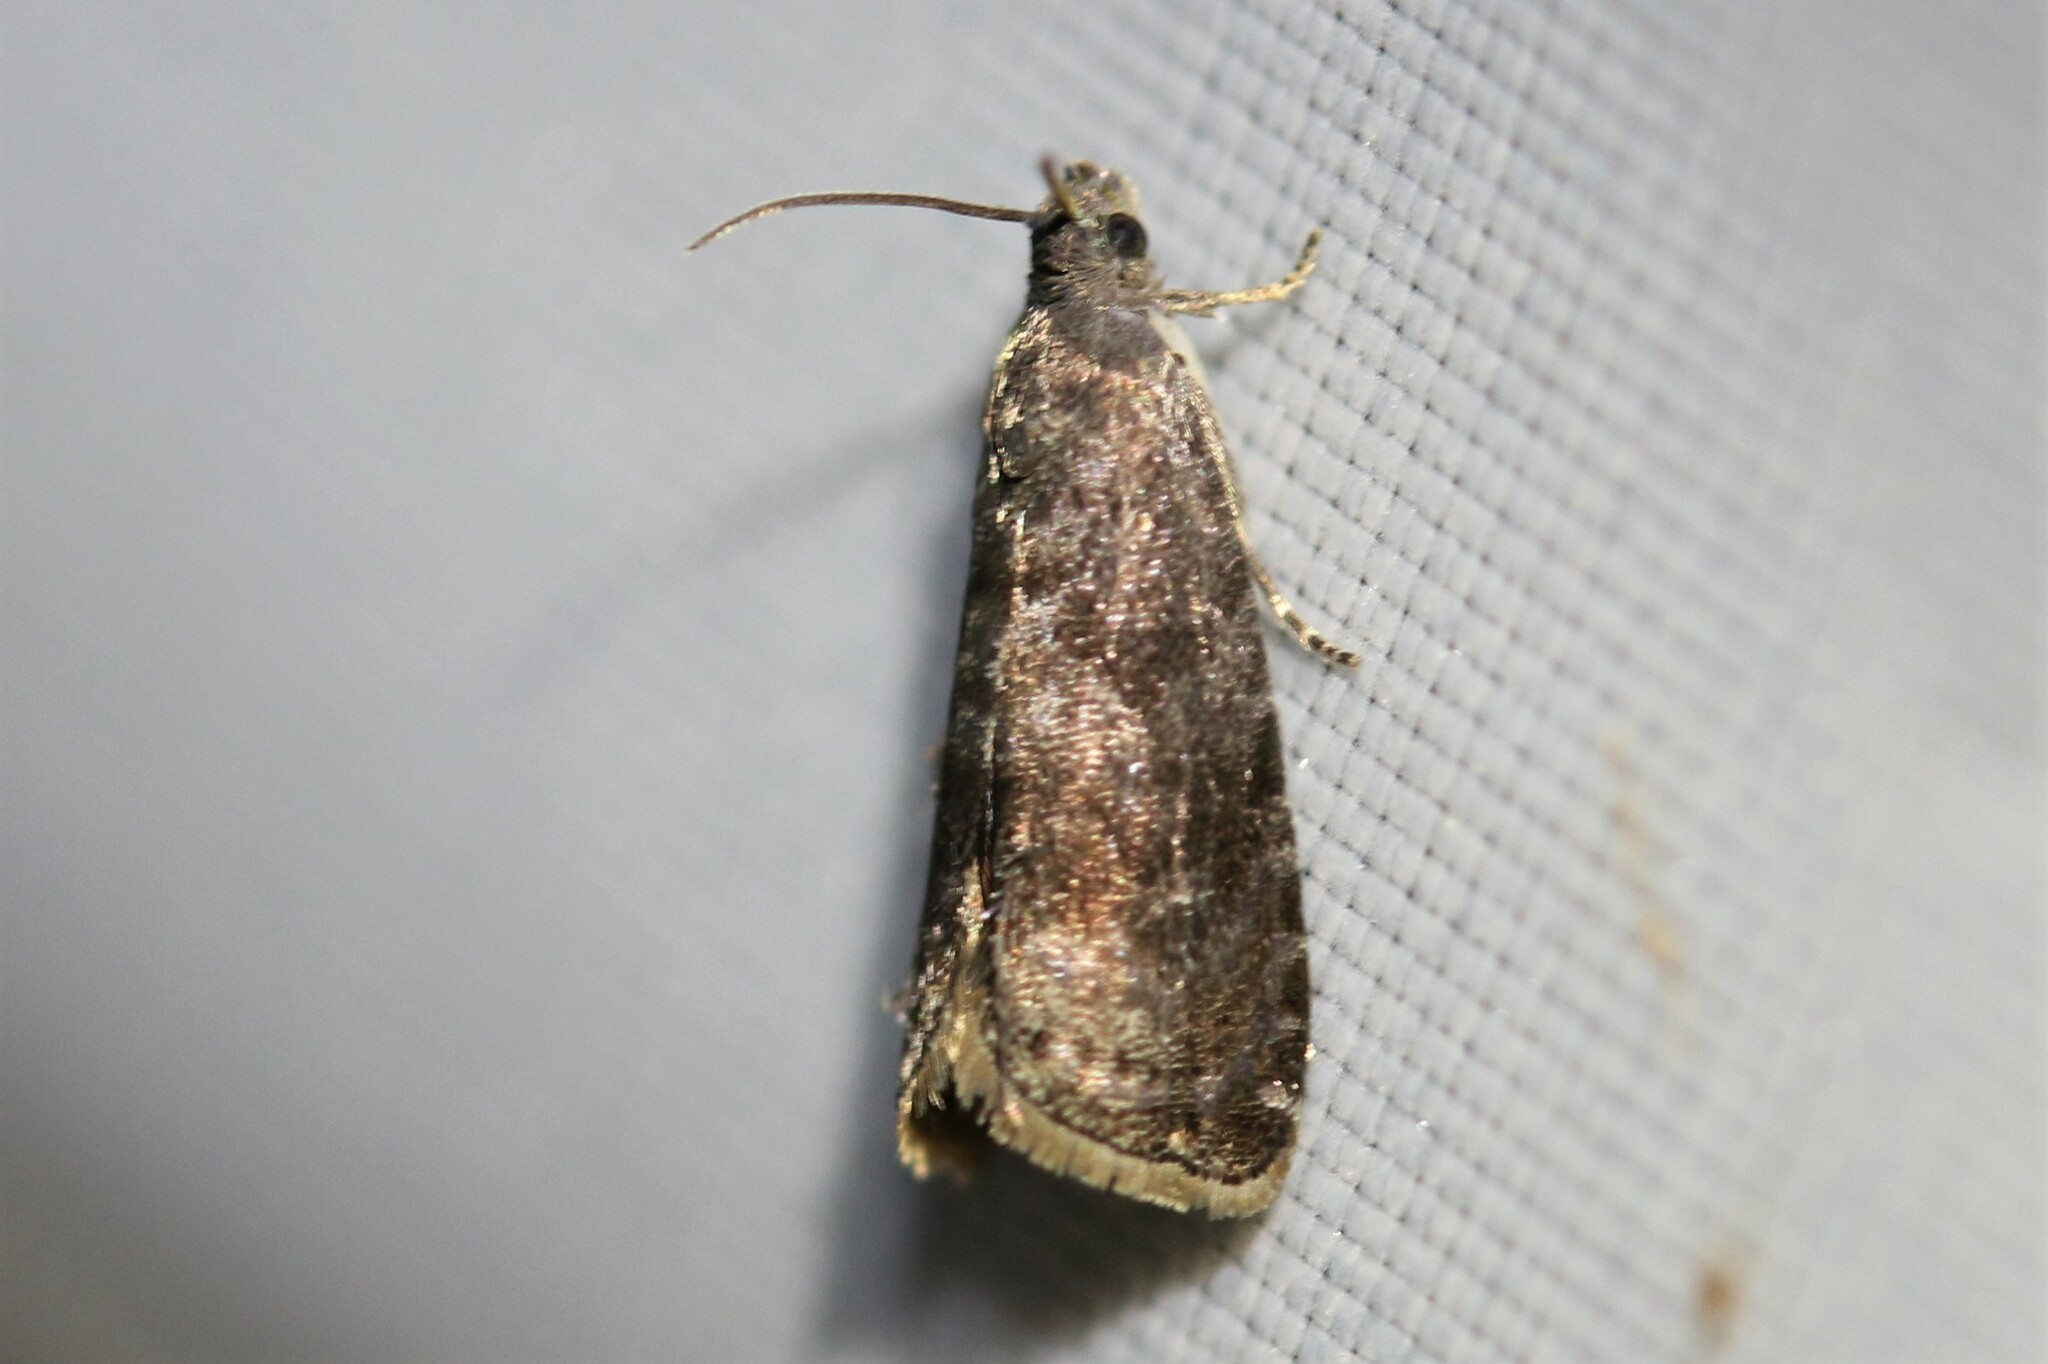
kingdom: Animalia
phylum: Arthropoda
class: Insecta
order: Lepidoptera
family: Noctuidae
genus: Aspila
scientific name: Aspila
